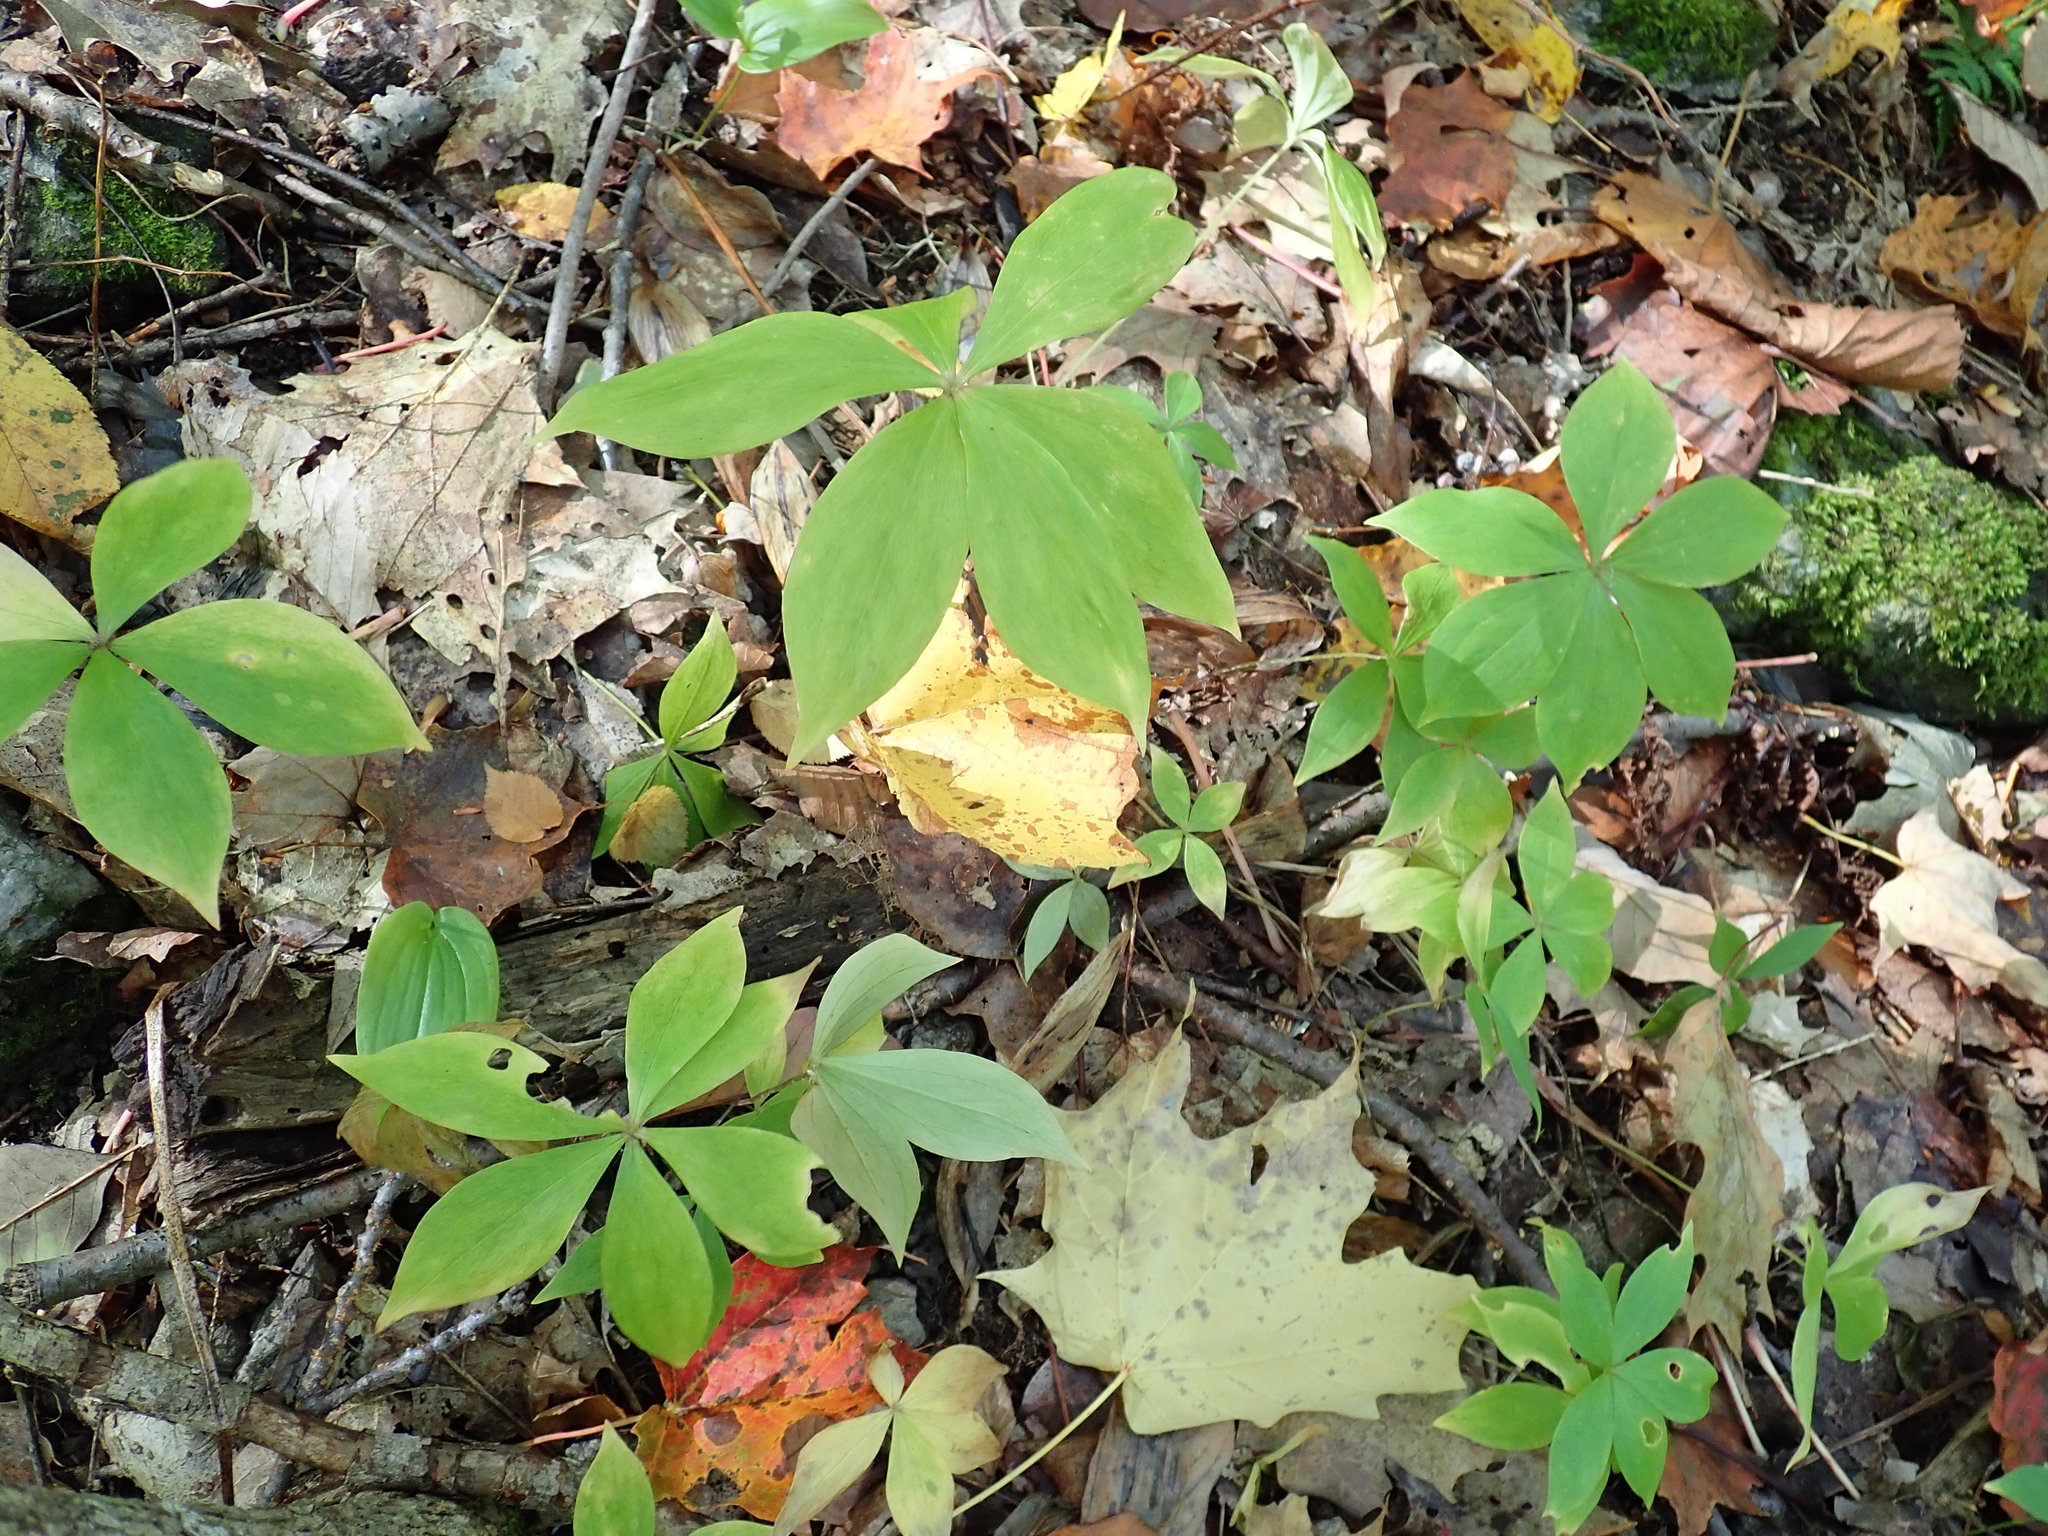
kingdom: Plantae
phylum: Tracheophyta
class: Liliopsida
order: Liliales
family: Liliaceae
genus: Medeola
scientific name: Medeola virginiana
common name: Indian cucumber-root
